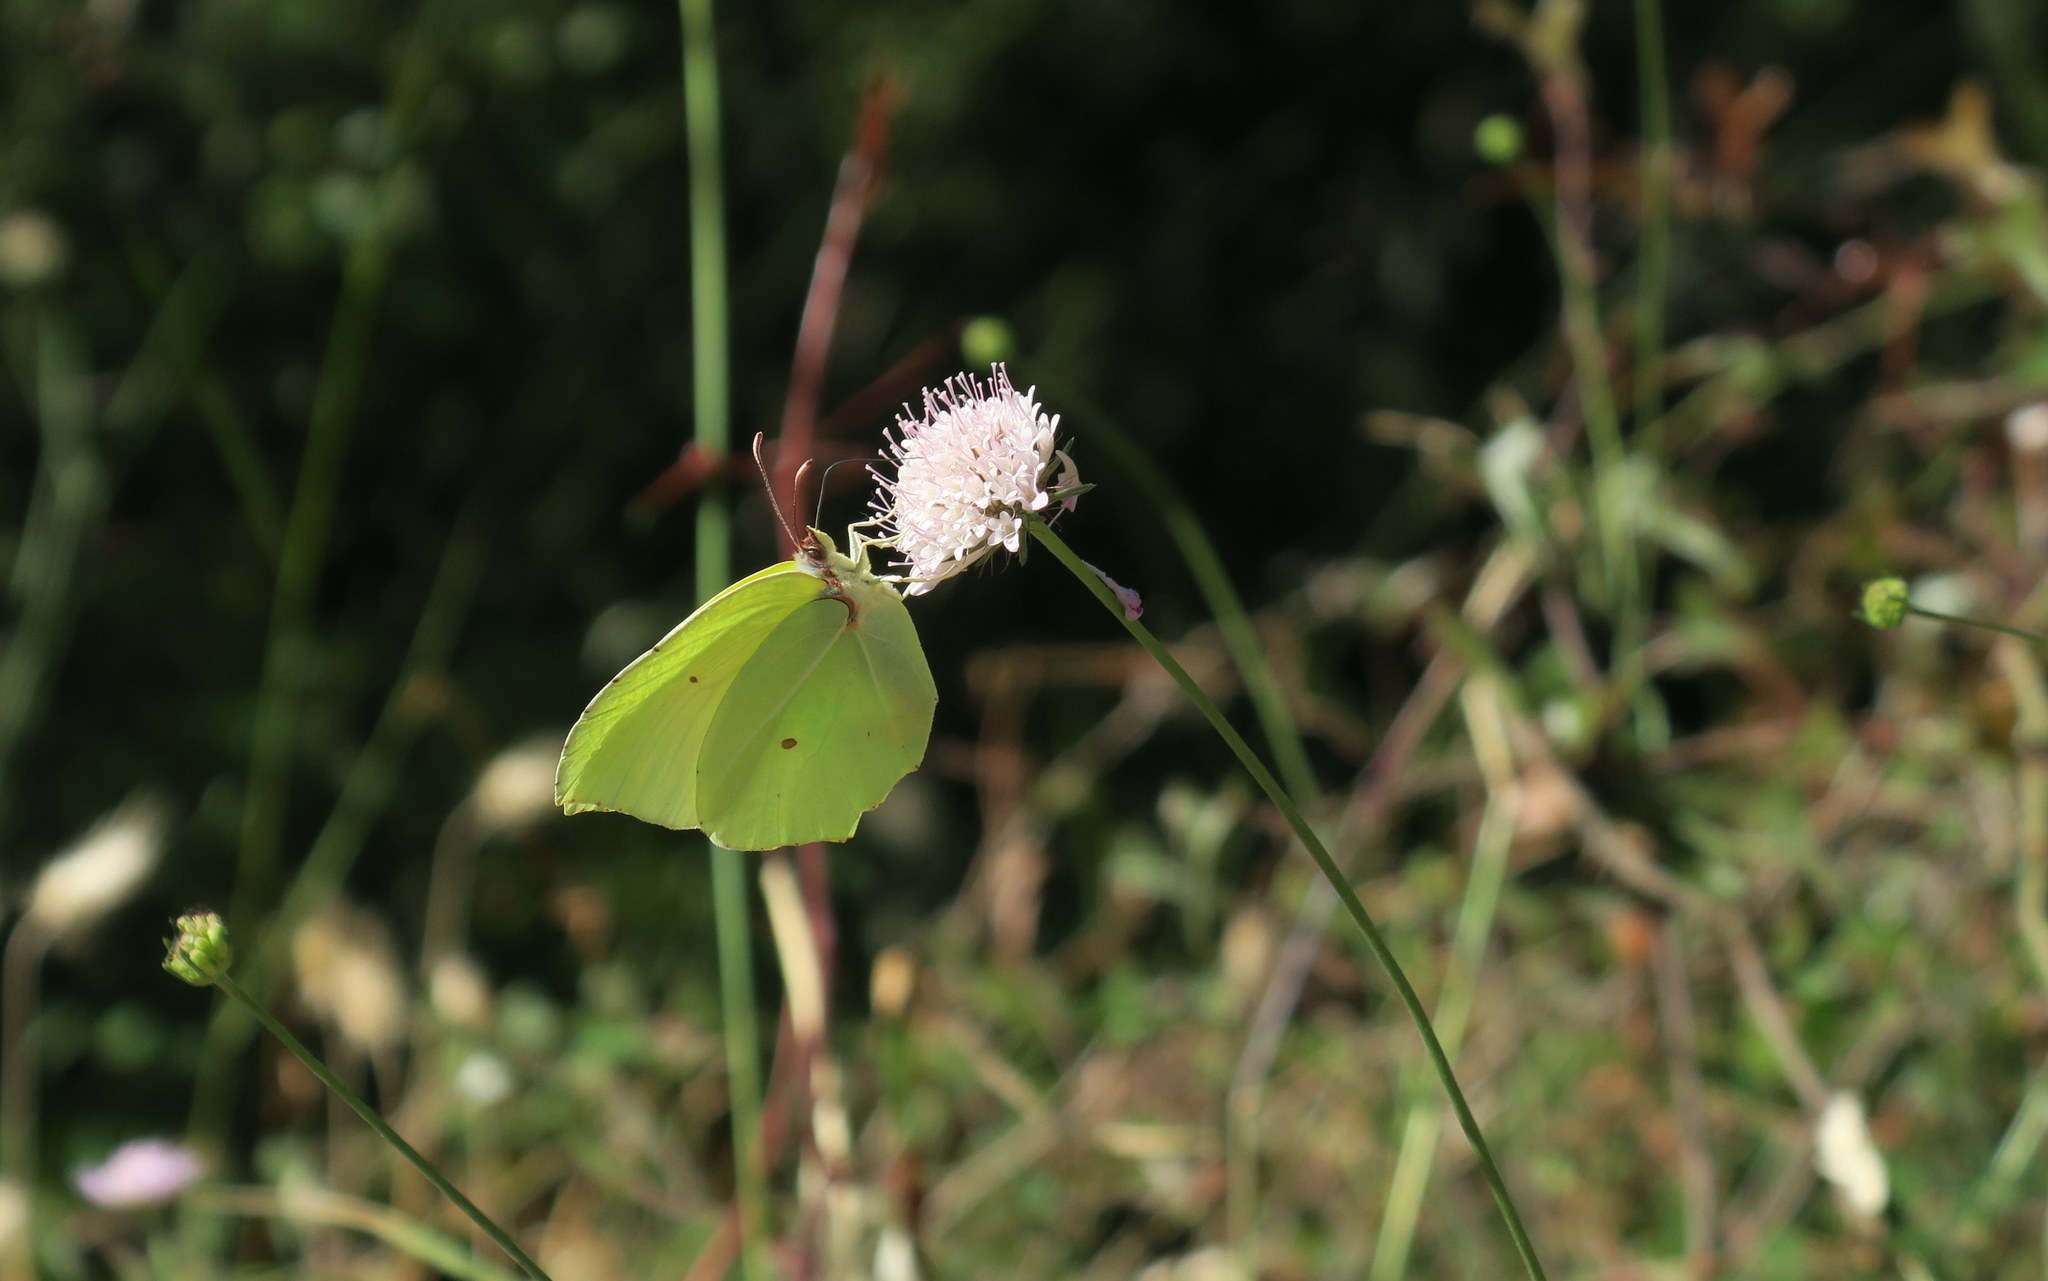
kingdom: Animalia
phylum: Arthropoda
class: Insecta
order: Lepidoptera
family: Pieridae
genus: Gonepteryx
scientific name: Gonepteryx rhamni
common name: Brimstone
